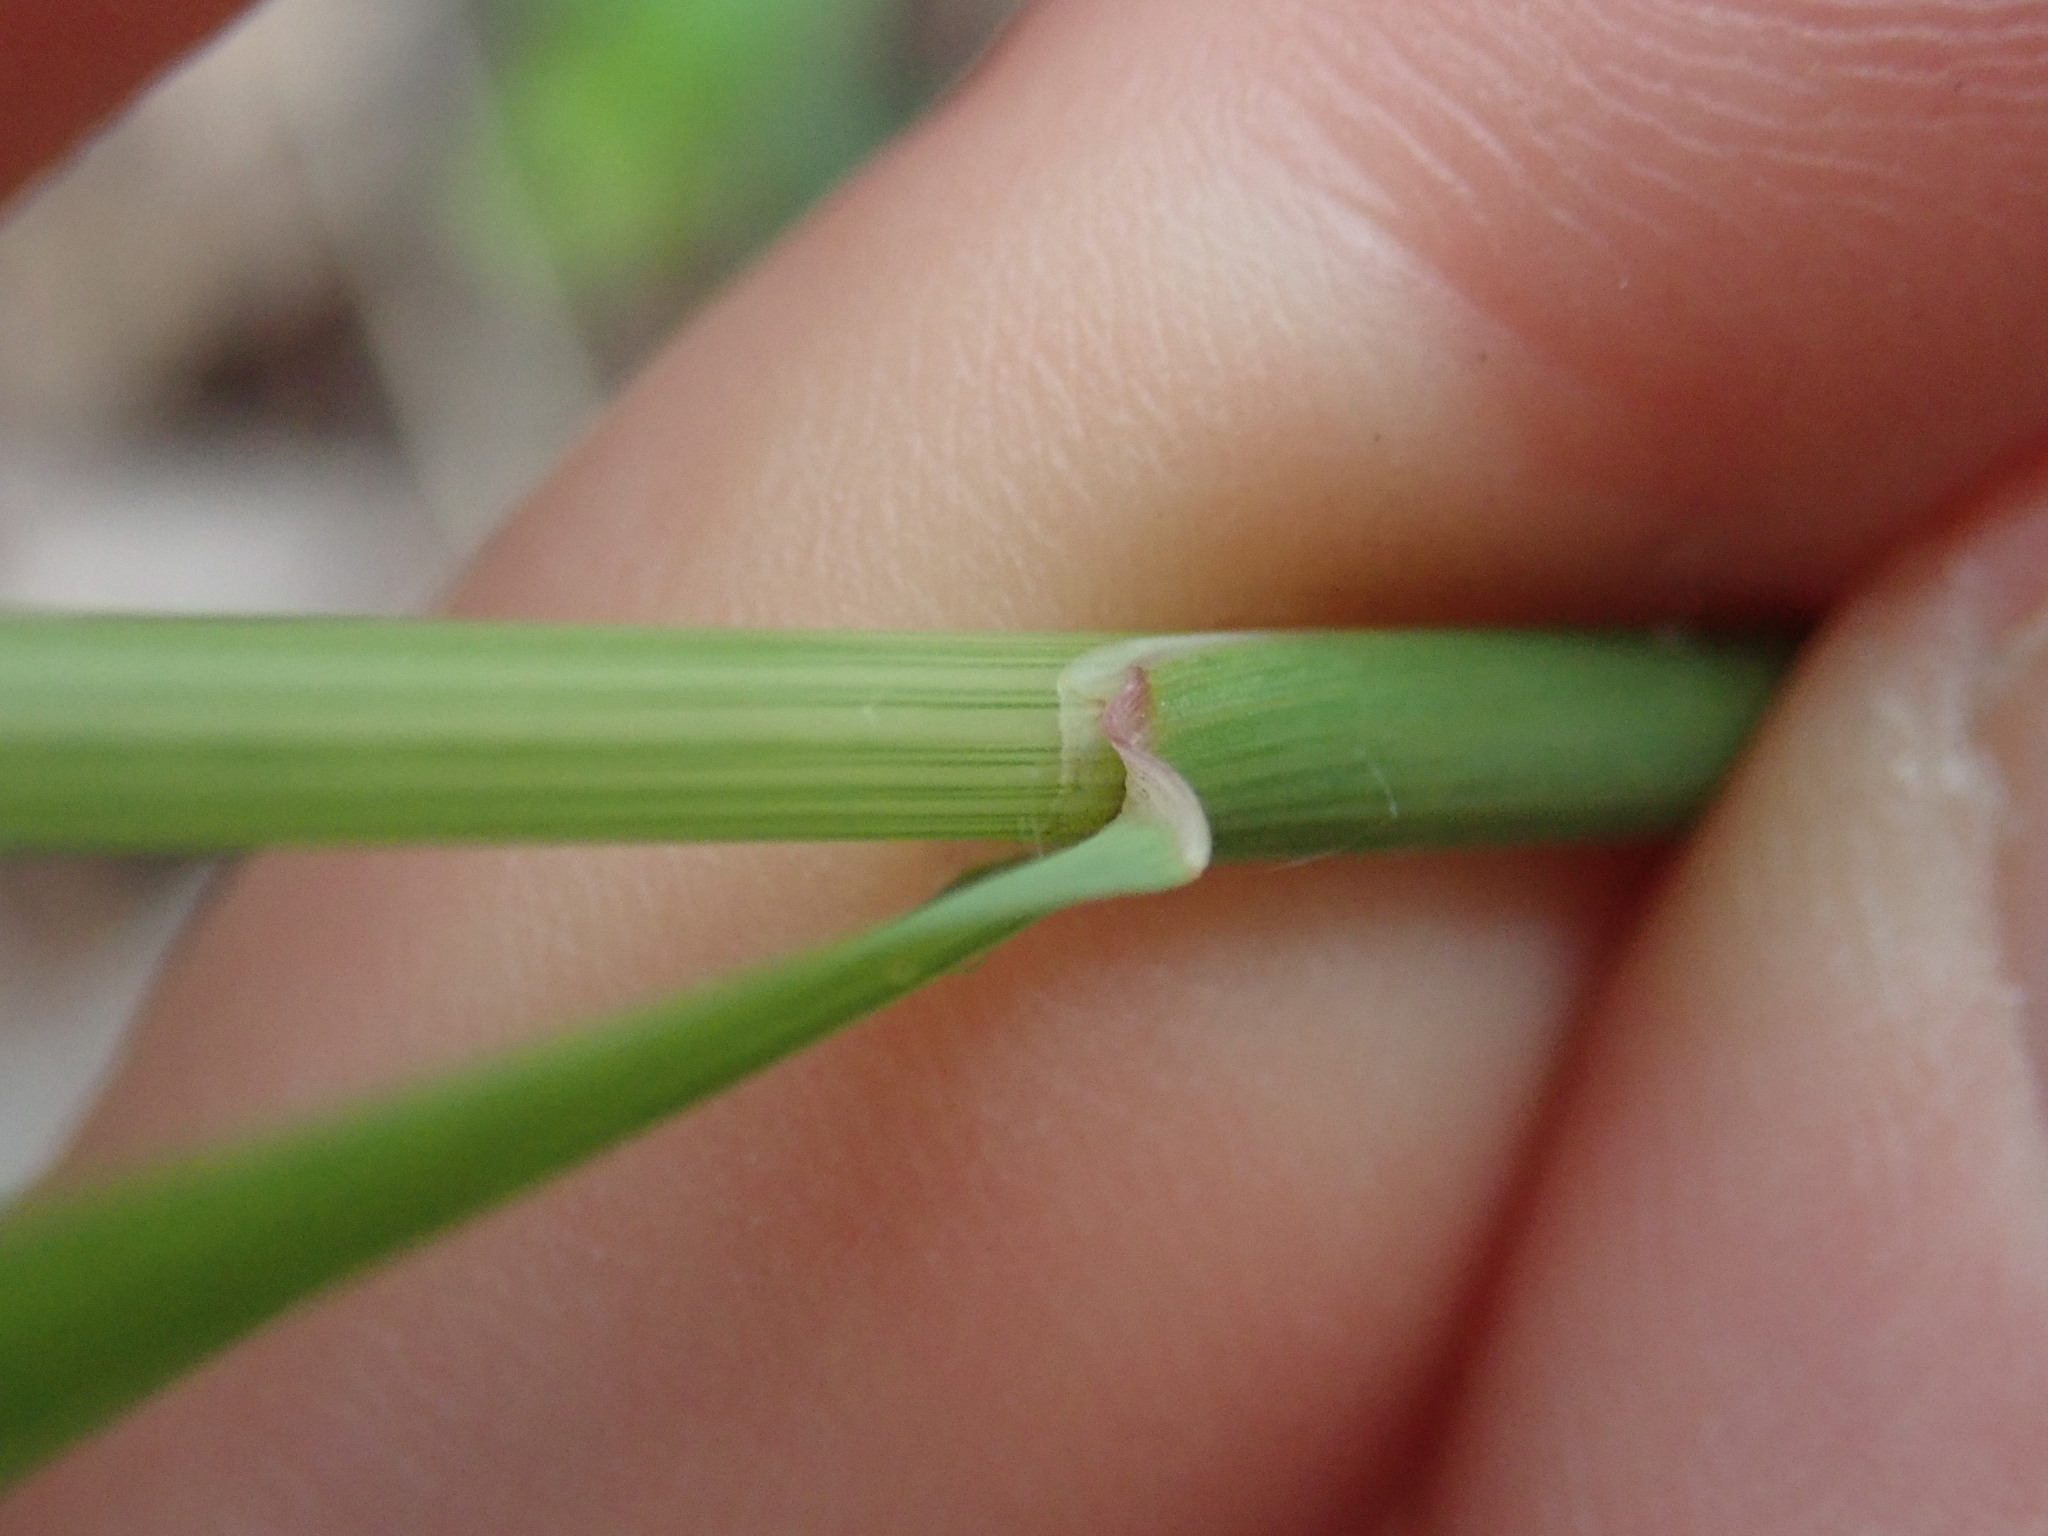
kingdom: Plantae
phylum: Tracheophyta
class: Liliopsida
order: Poales
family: Poaceae
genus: Arrhenatherum
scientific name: Arrhenatherum elatius
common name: Tall oatgrass
